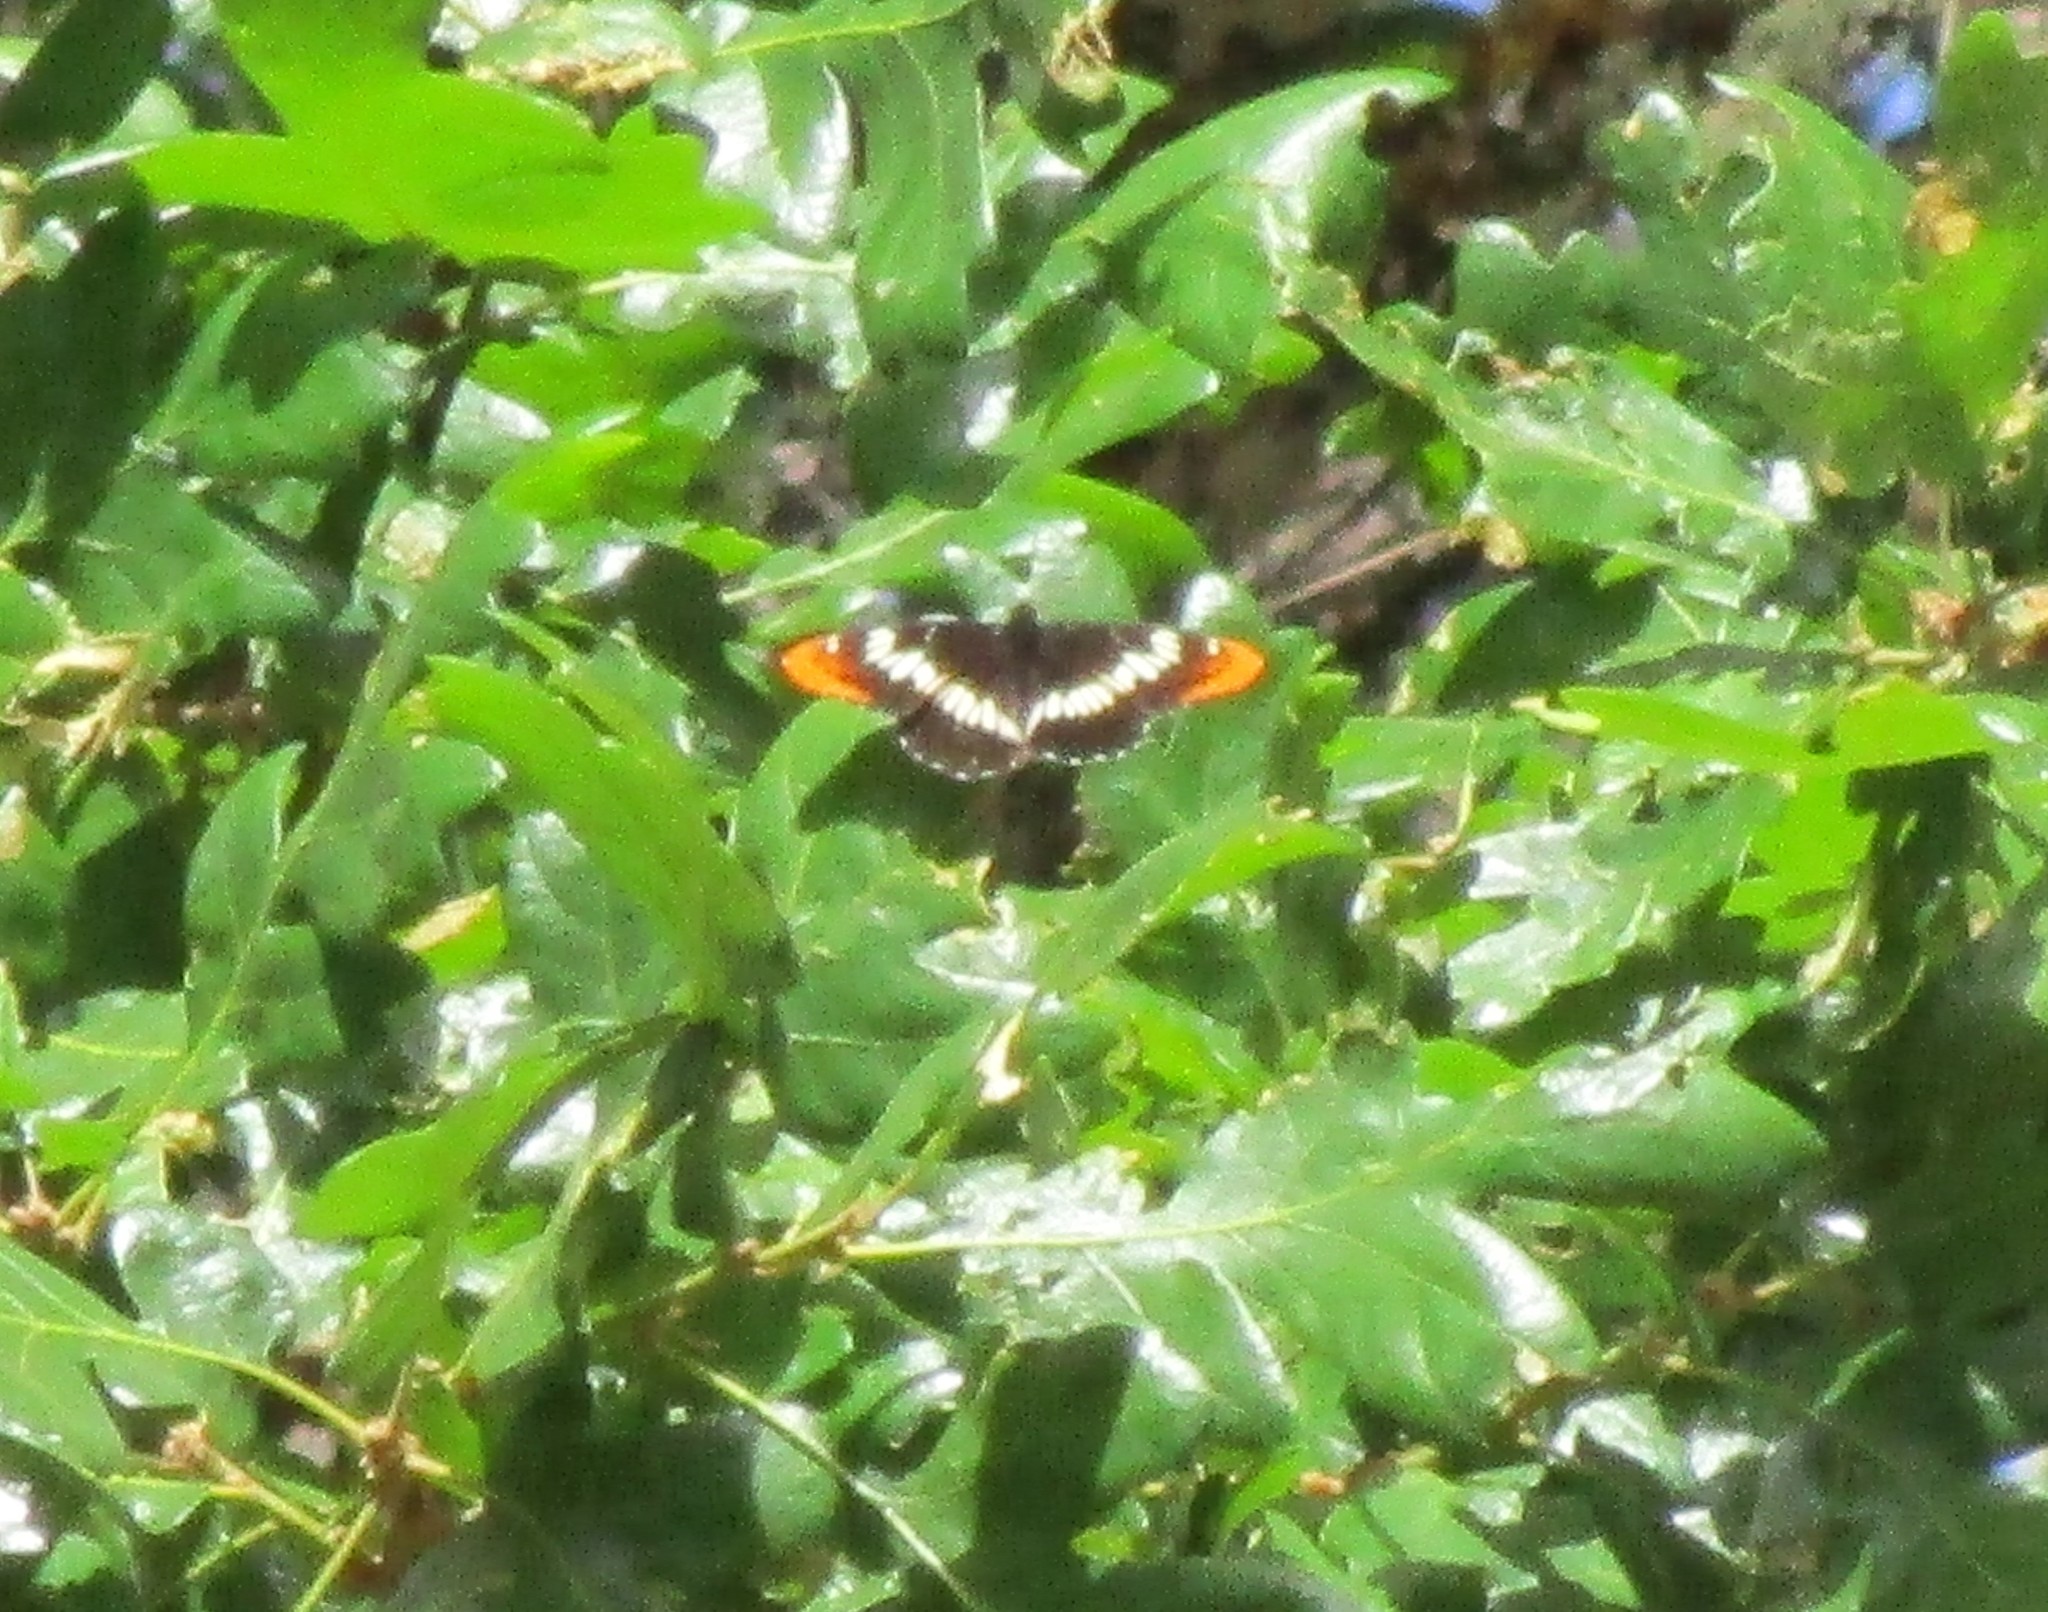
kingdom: Animalia
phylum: Arthropoda
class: Insecta
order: Lepidoptera
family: Nymphalidae
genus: Limenitis
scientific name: Limenitis lorquini
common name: Lorquin's admiral
